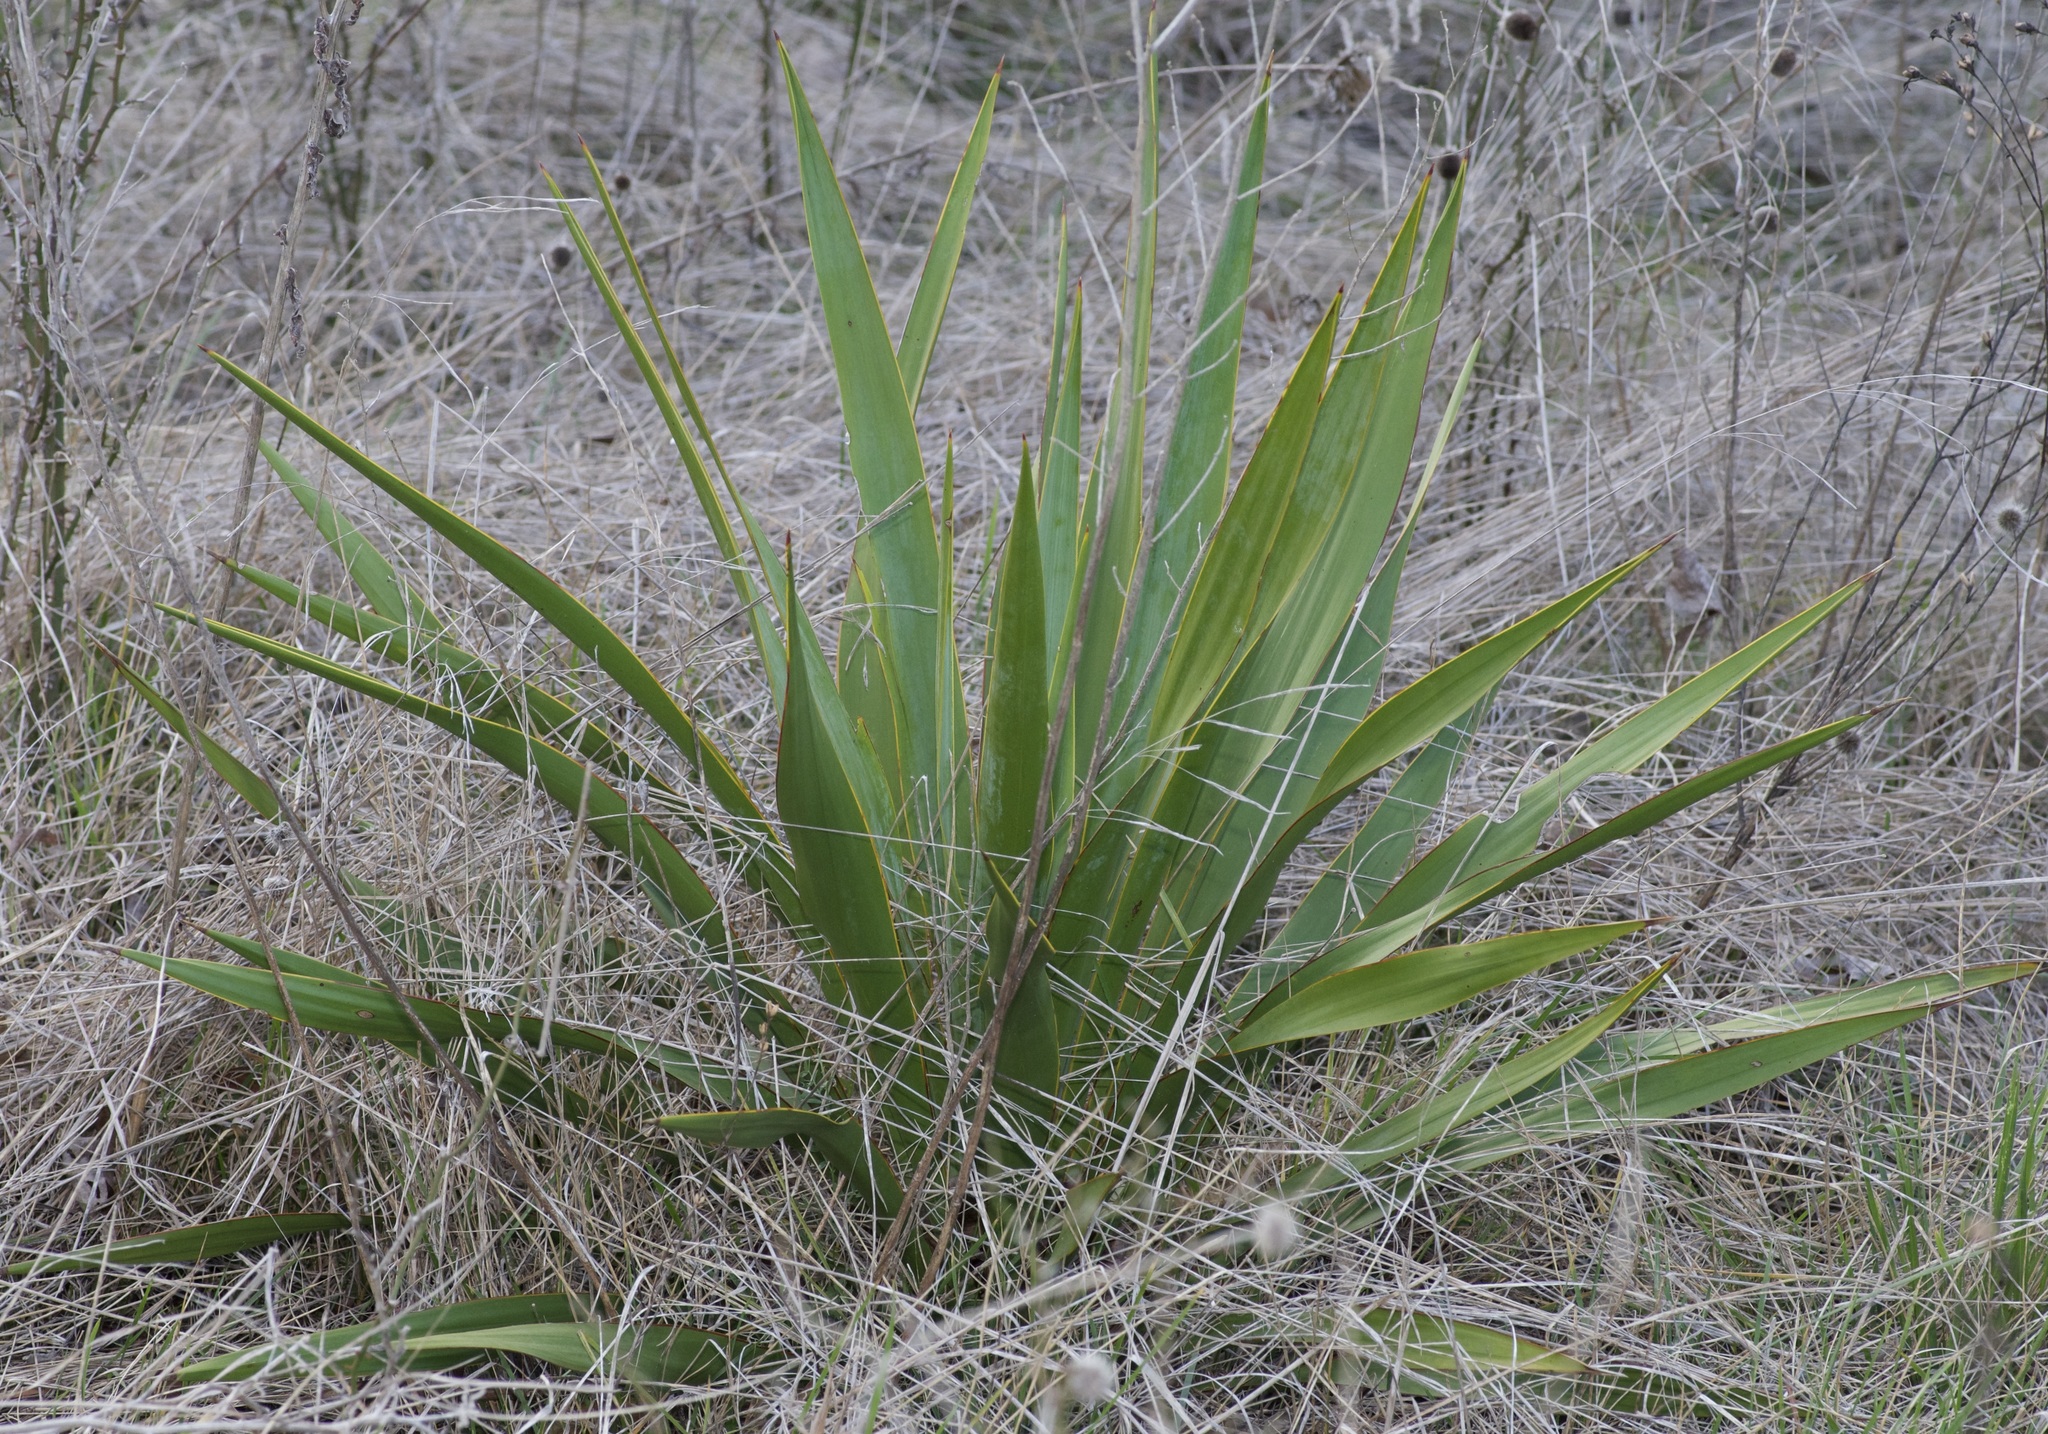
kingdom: Plantae
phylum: Tracheophyta
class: Liliopsida
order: Asparagales
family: Asparagaceae
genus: Yucca
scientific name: Yucca rupicola
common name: Twisted-leaf spanish-dagger
